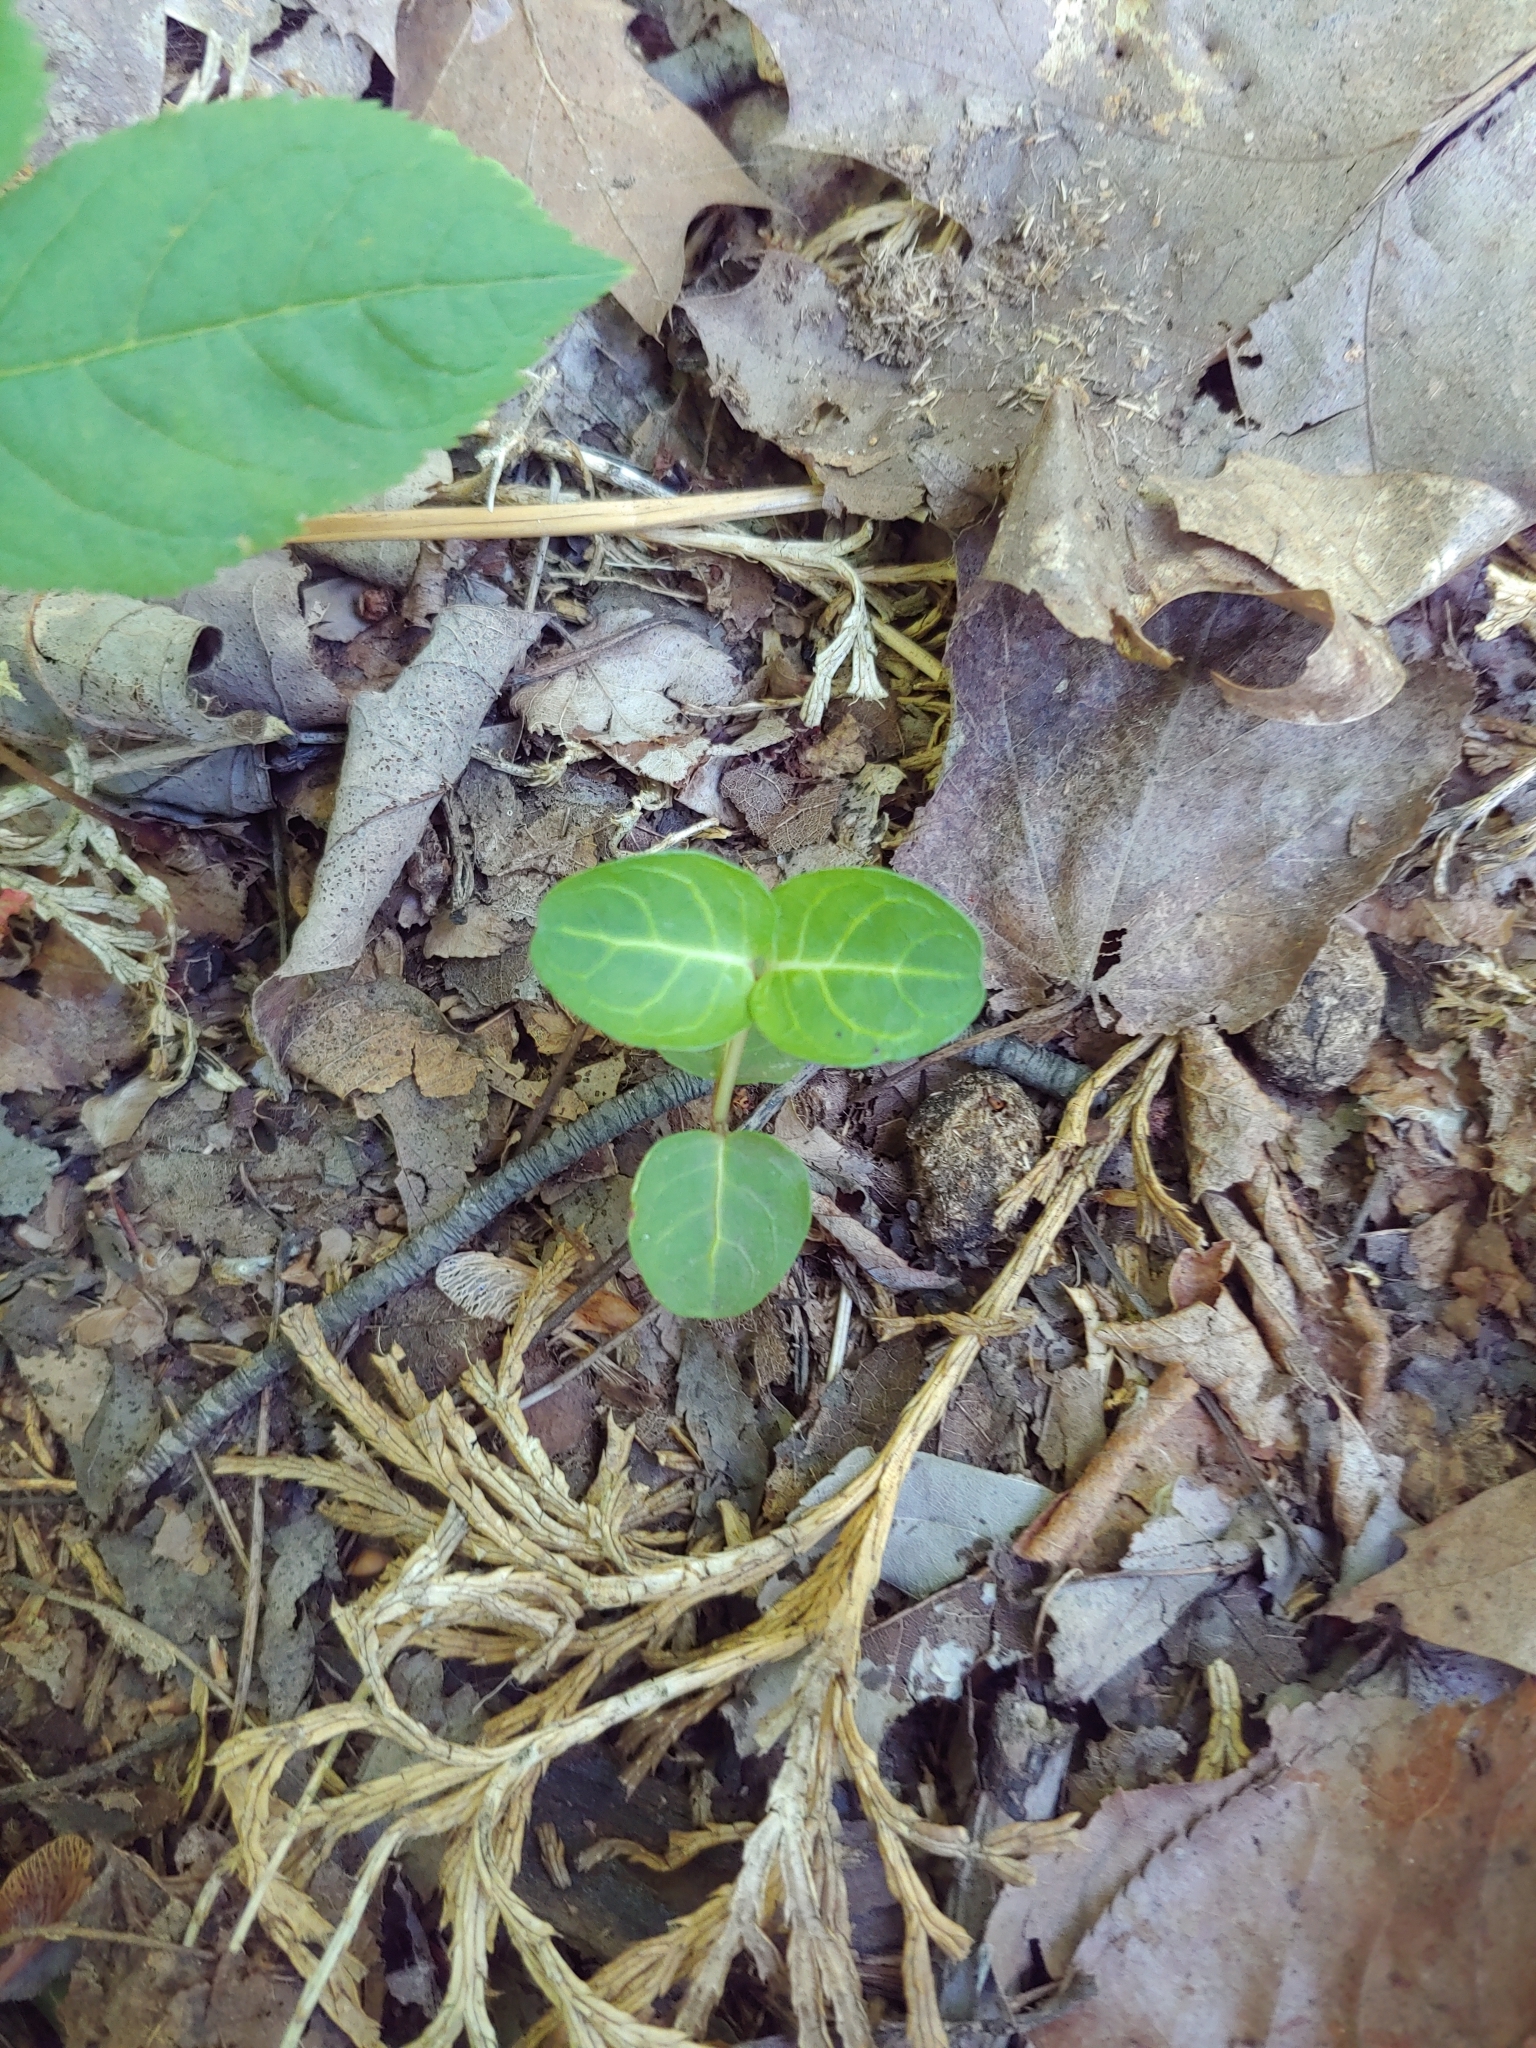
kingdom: Plantae
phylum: Tracheophyta
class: Magnoliopsida
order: Gentianales
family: Rubiaceae
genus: Mitchella
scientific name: Mitchella repens
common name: Partridge-berry
